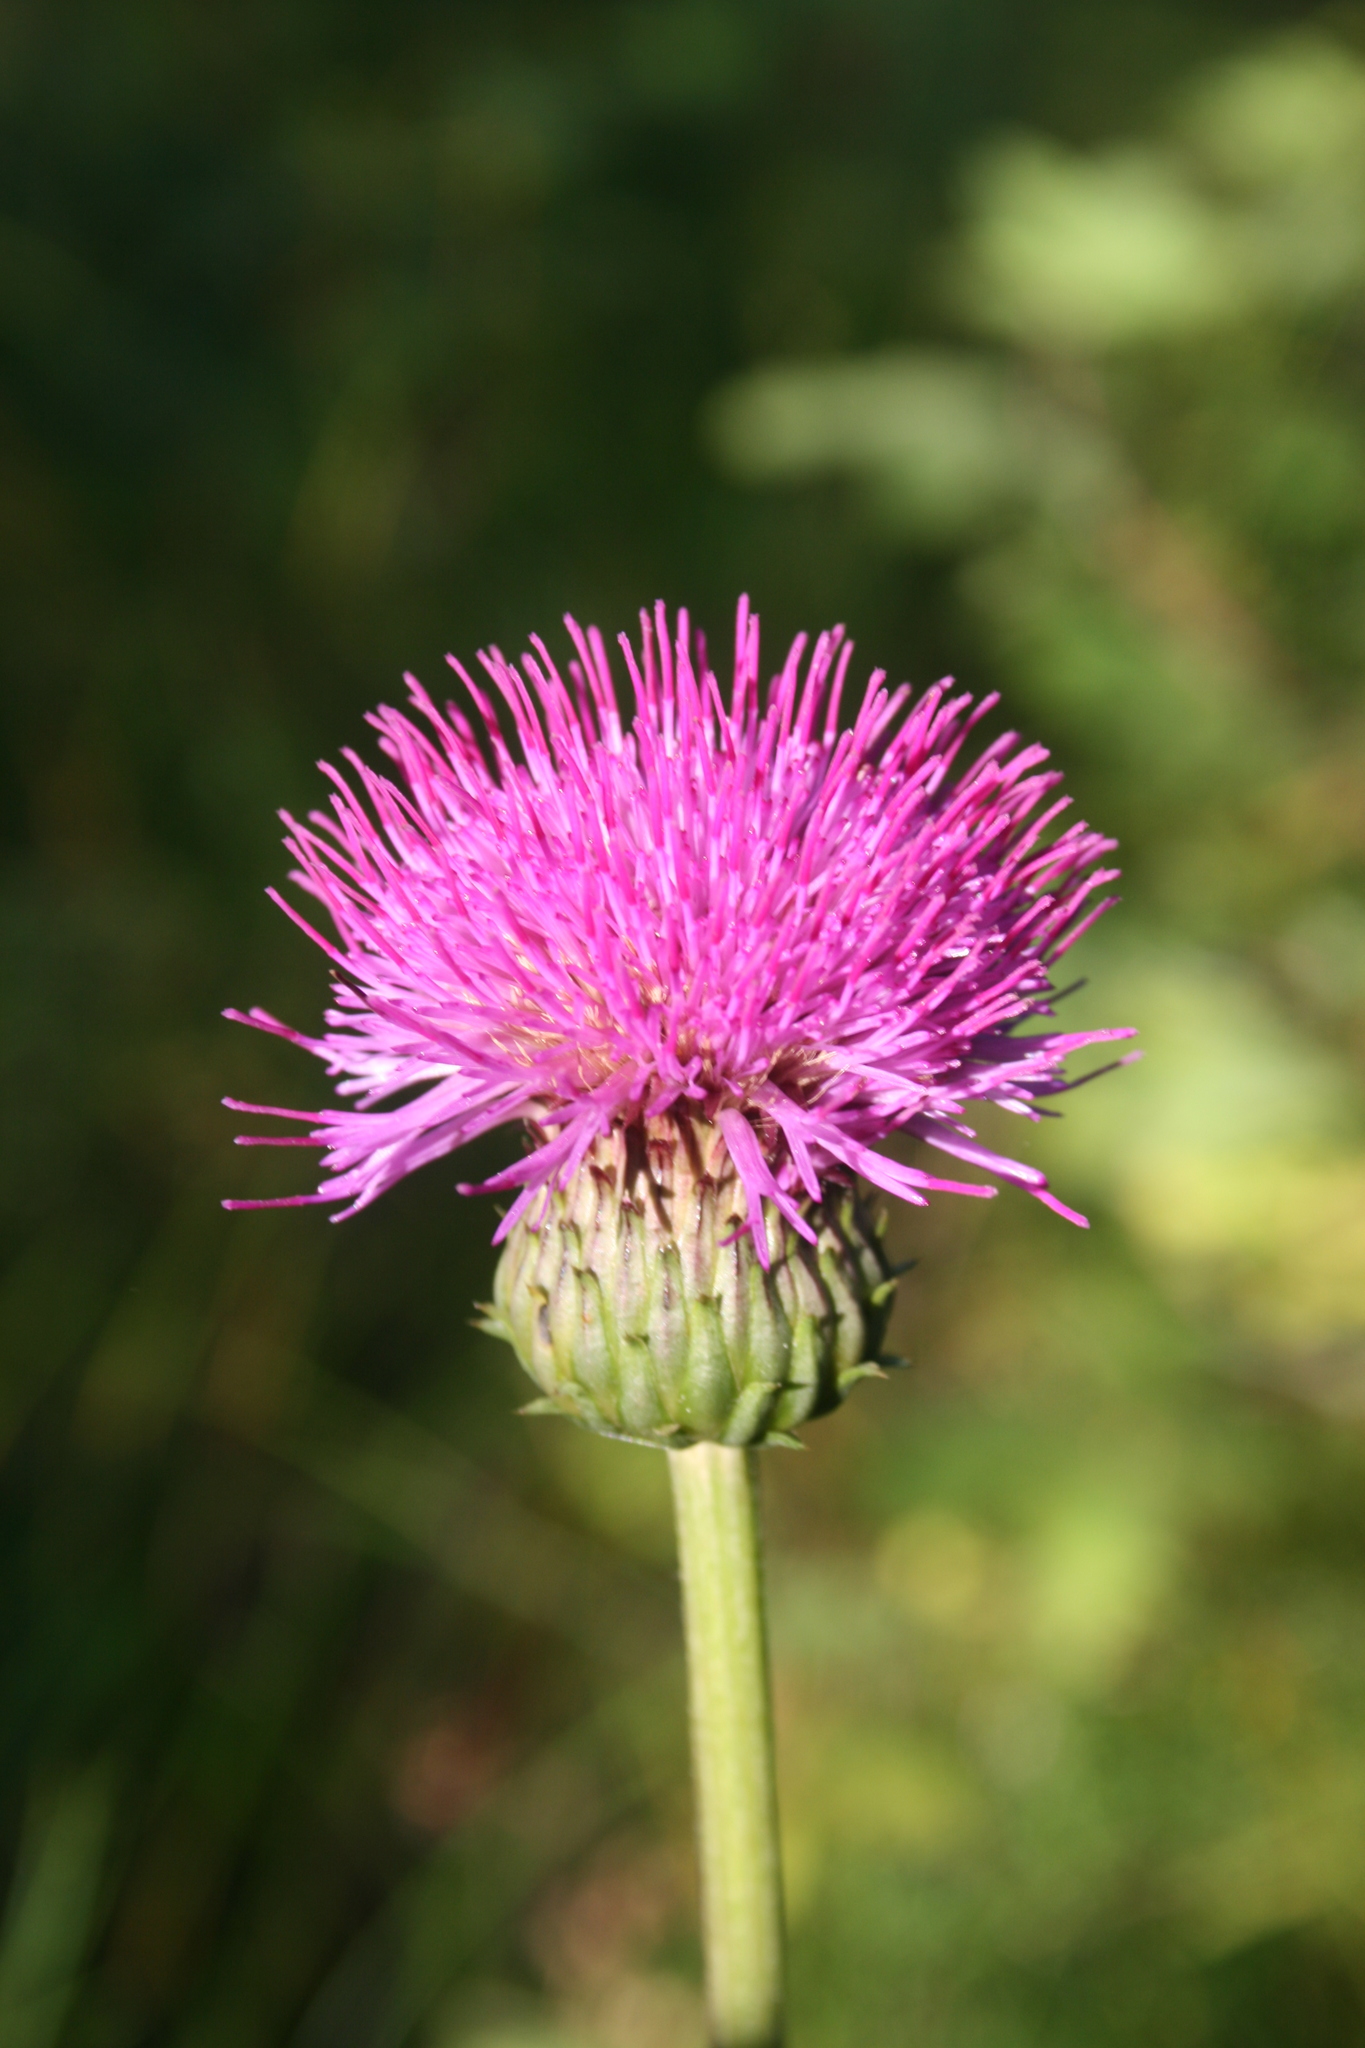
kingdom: Plantae
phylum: Tracheophyta
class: Magnoliopsida
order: Asterales
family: Asteraceae
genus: Cirsium
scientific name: Cirsium heterophyllum
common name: Melancholy thistle
